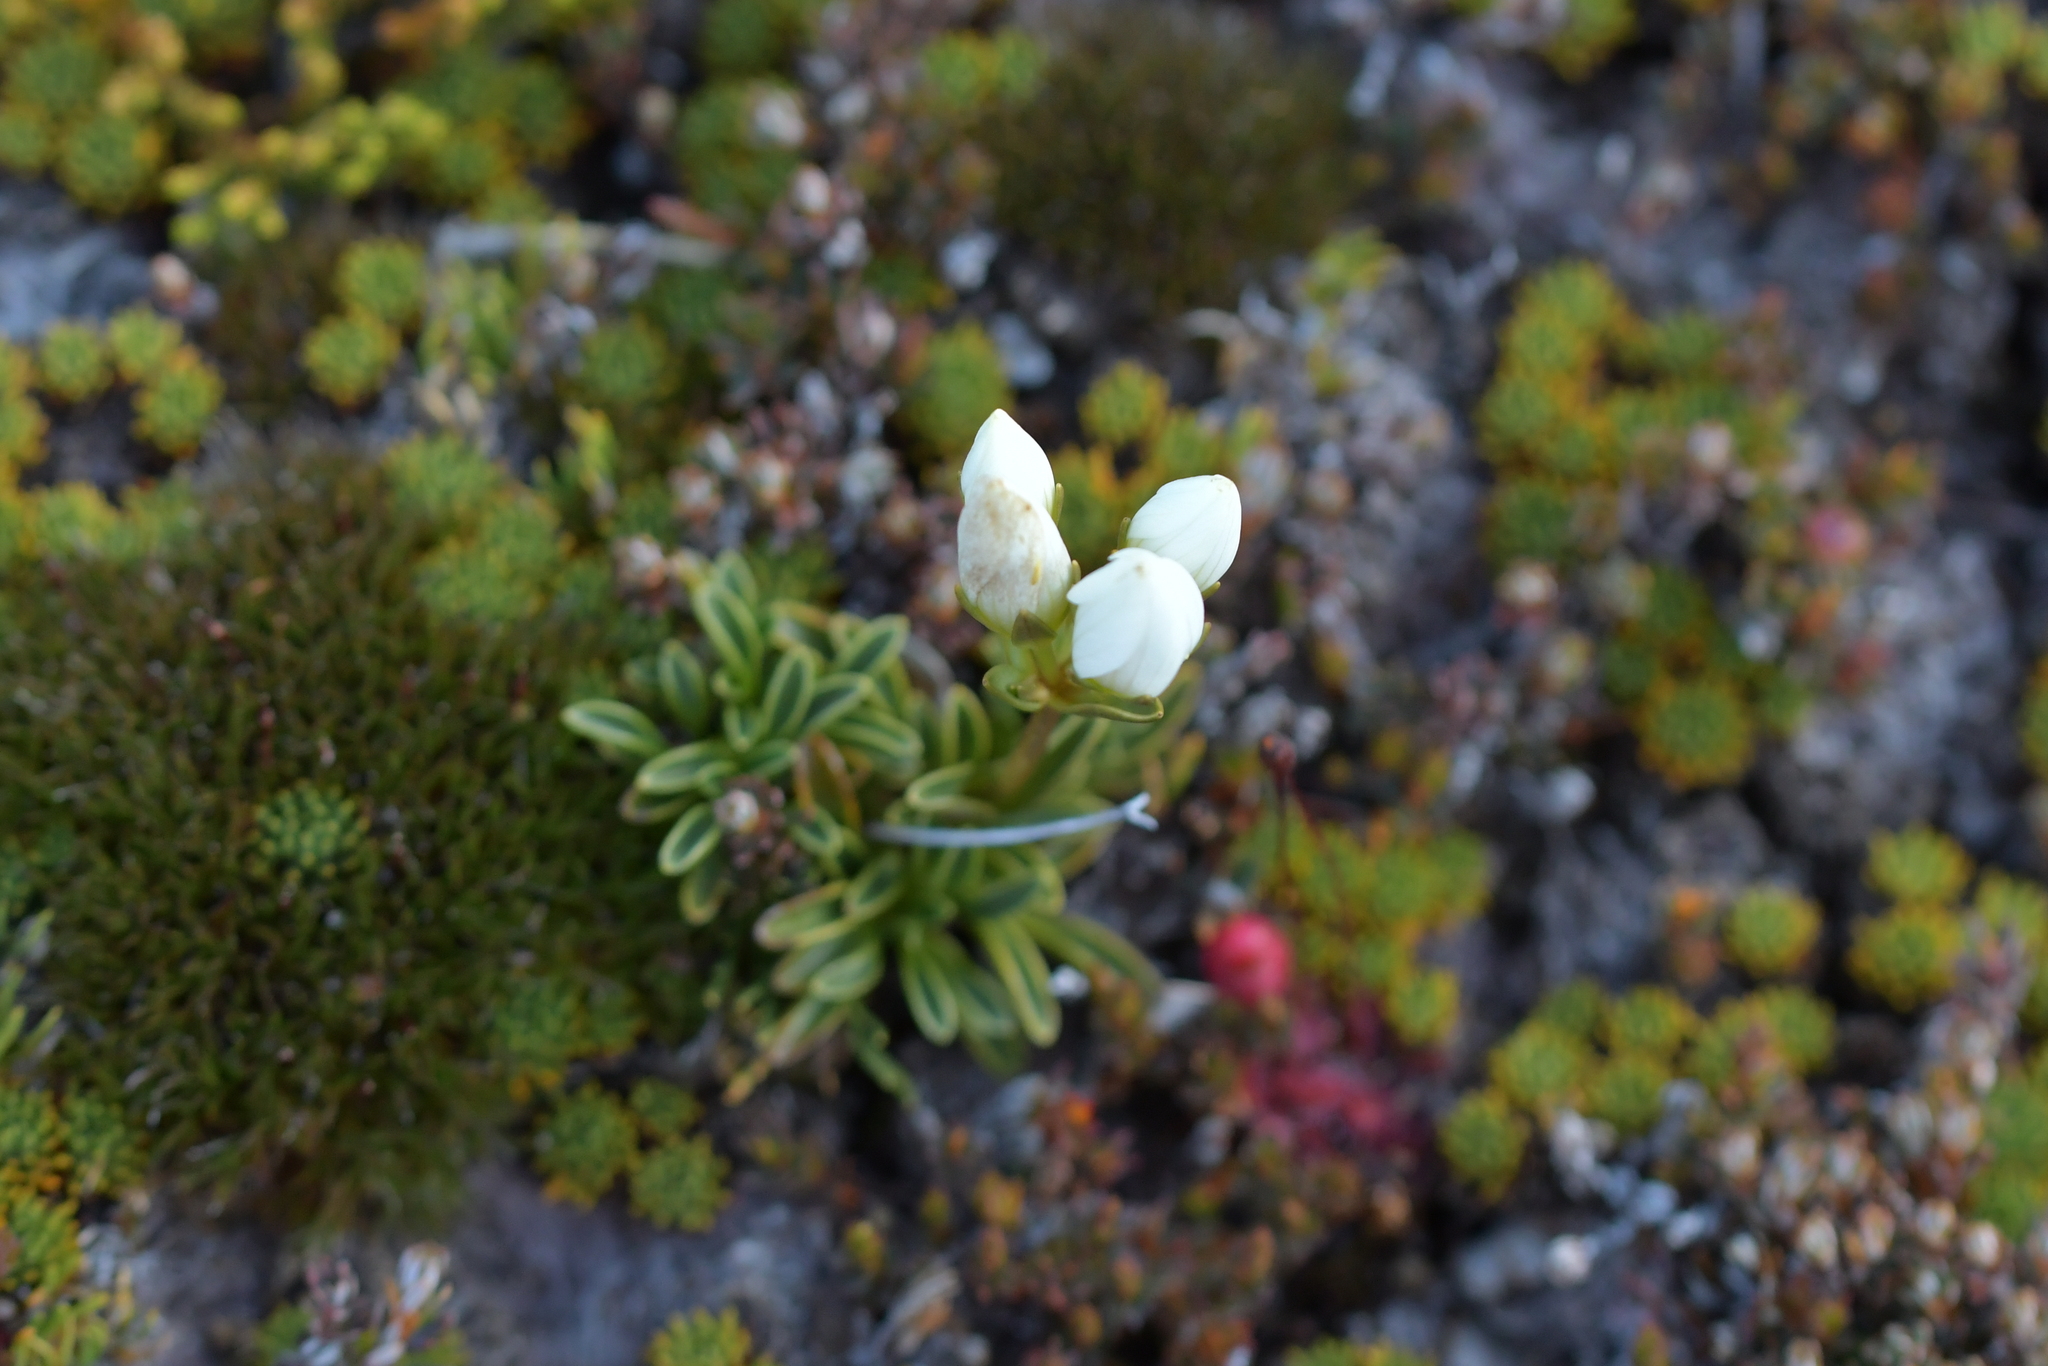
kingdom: Plantae
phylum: Tracheophyta
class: Magnoliopsida
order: Gentianales
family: Gentianaceae
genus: Gentianella
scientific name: Gentianella bellidifolia
